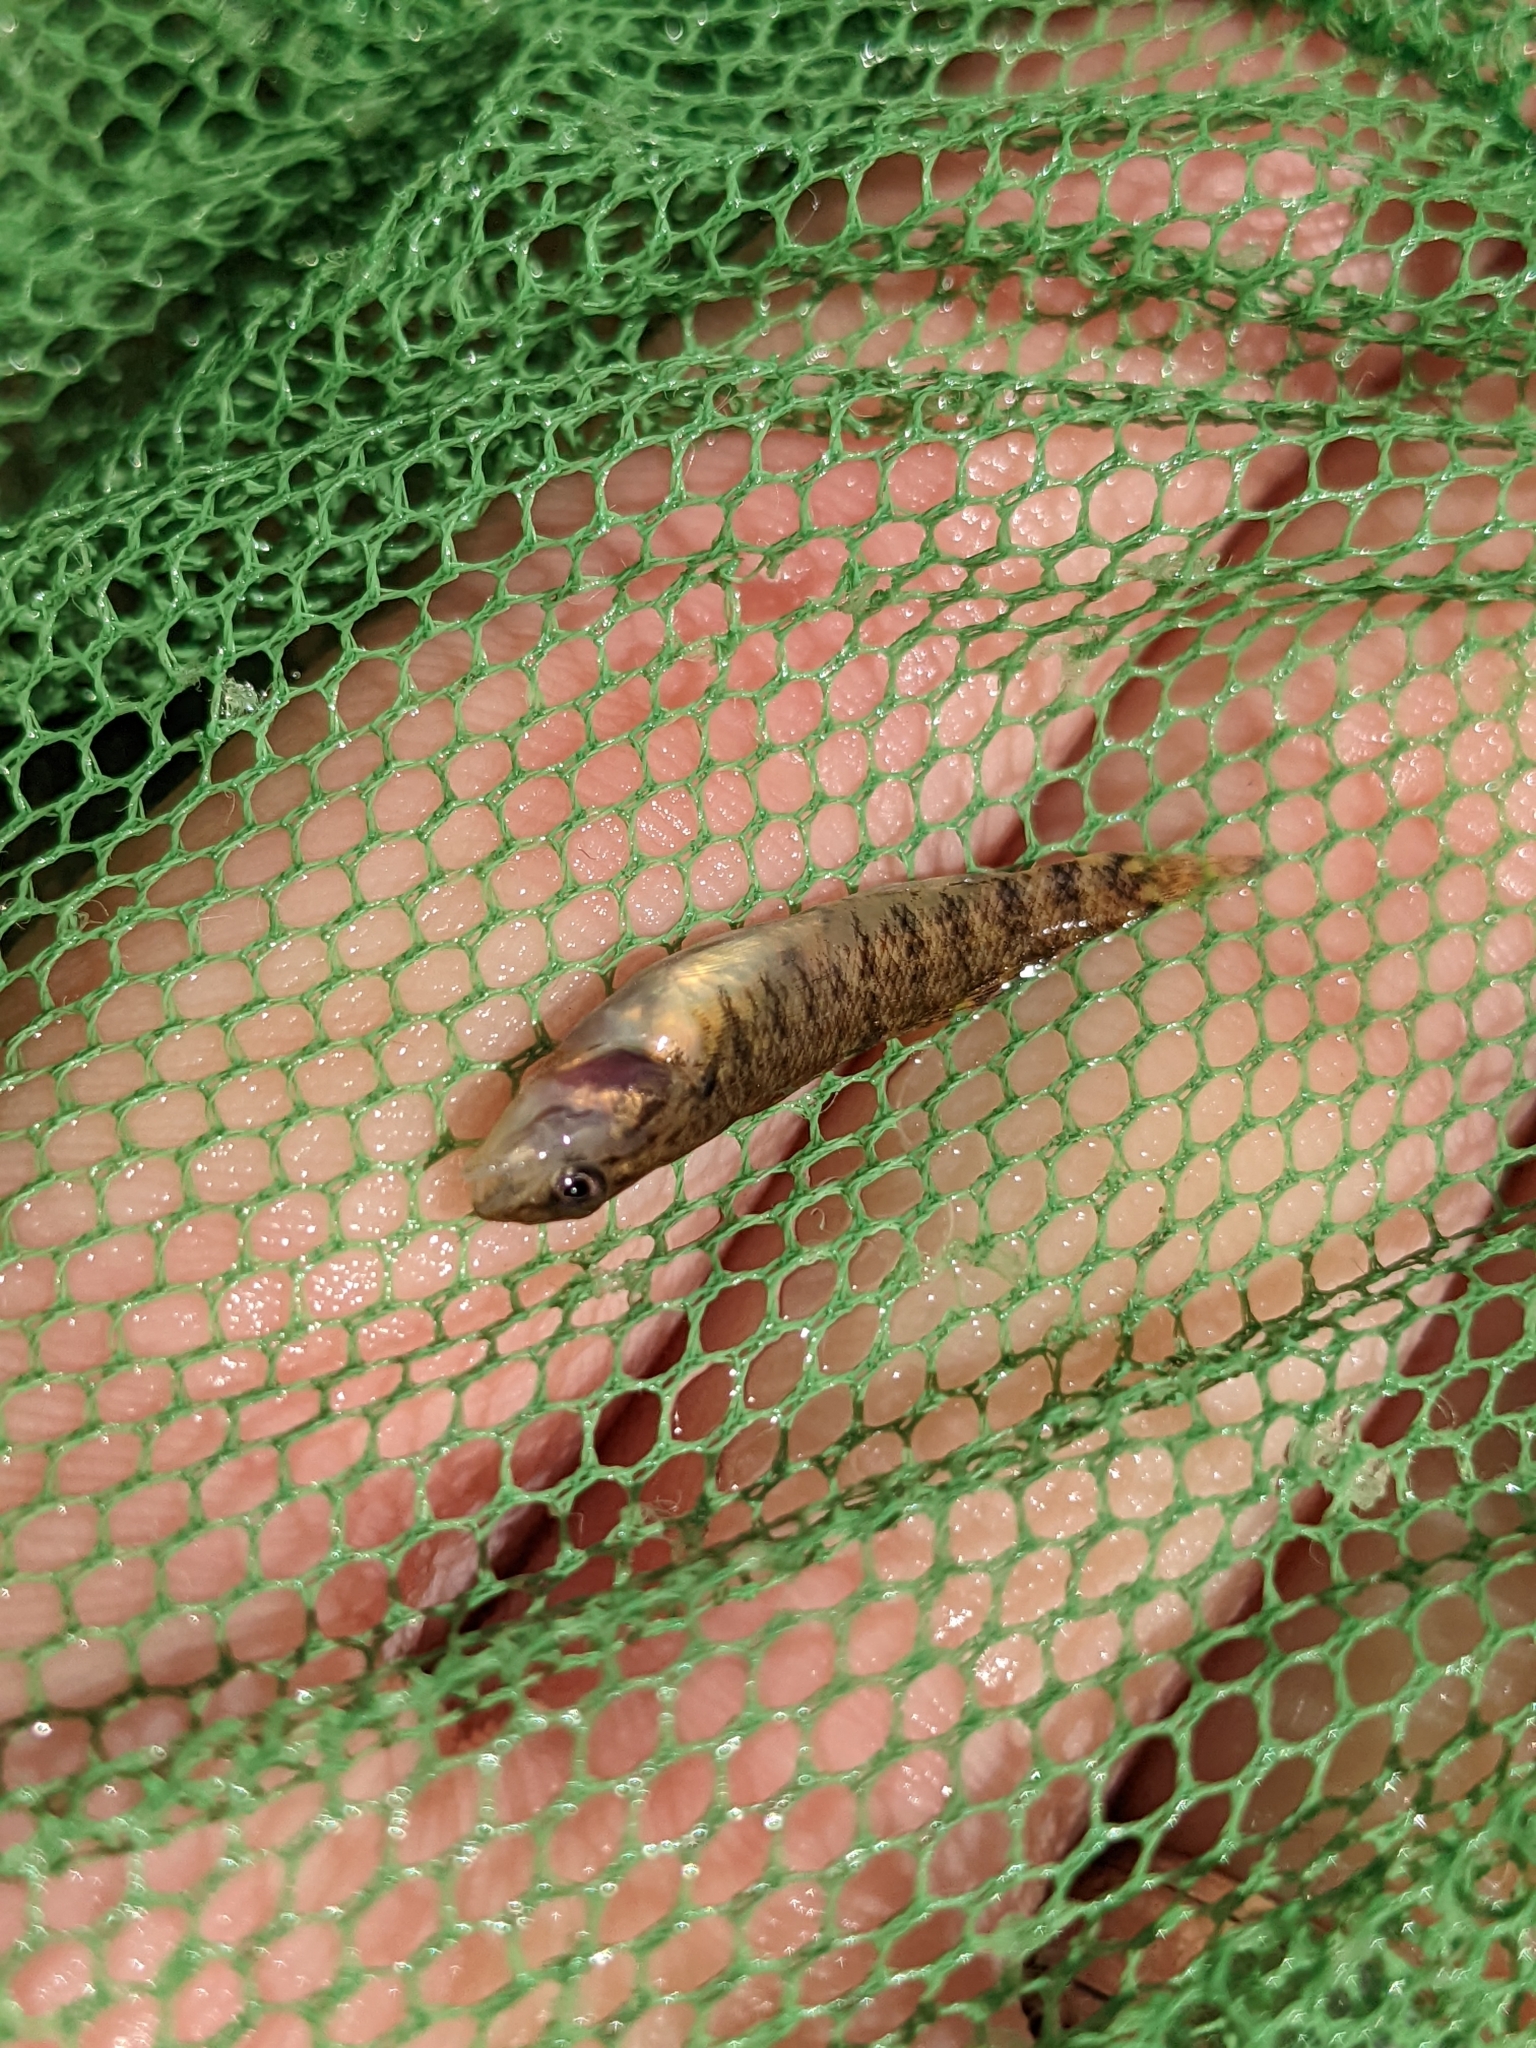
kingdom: Animalia
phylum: Chordata
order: Perciformes
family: Percidae
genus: Etheostoma
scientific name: Etheostoma caeruleum
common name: Rainbow darter
